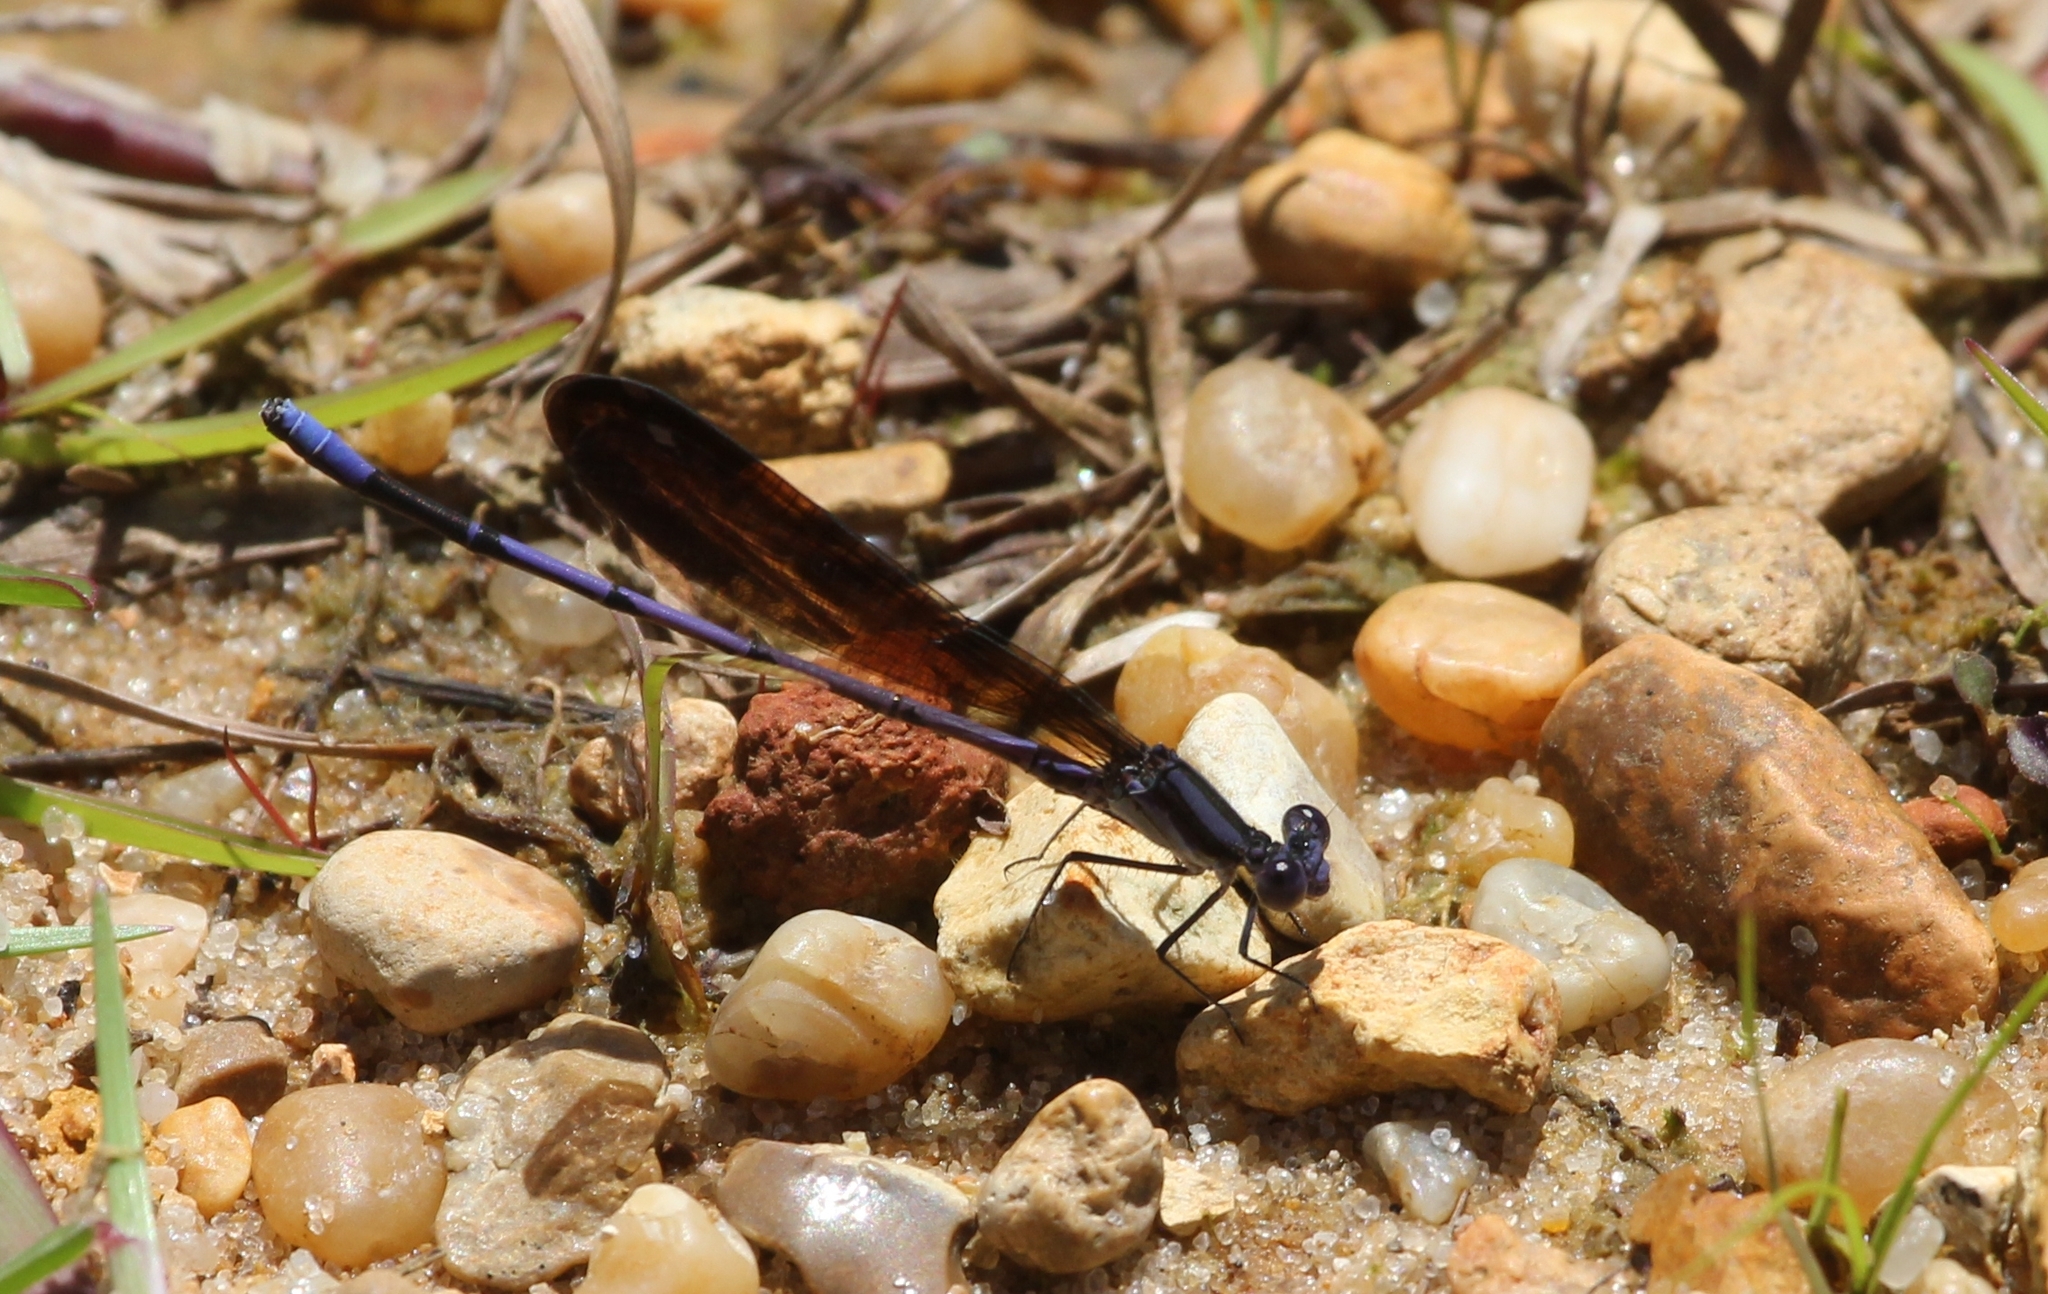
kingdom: Animalia
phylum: Arthropoda
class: Insecta
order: Odonata
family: Coenagrionidae
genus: Argia
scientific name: Argia fumipennis
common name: Variable dancer
